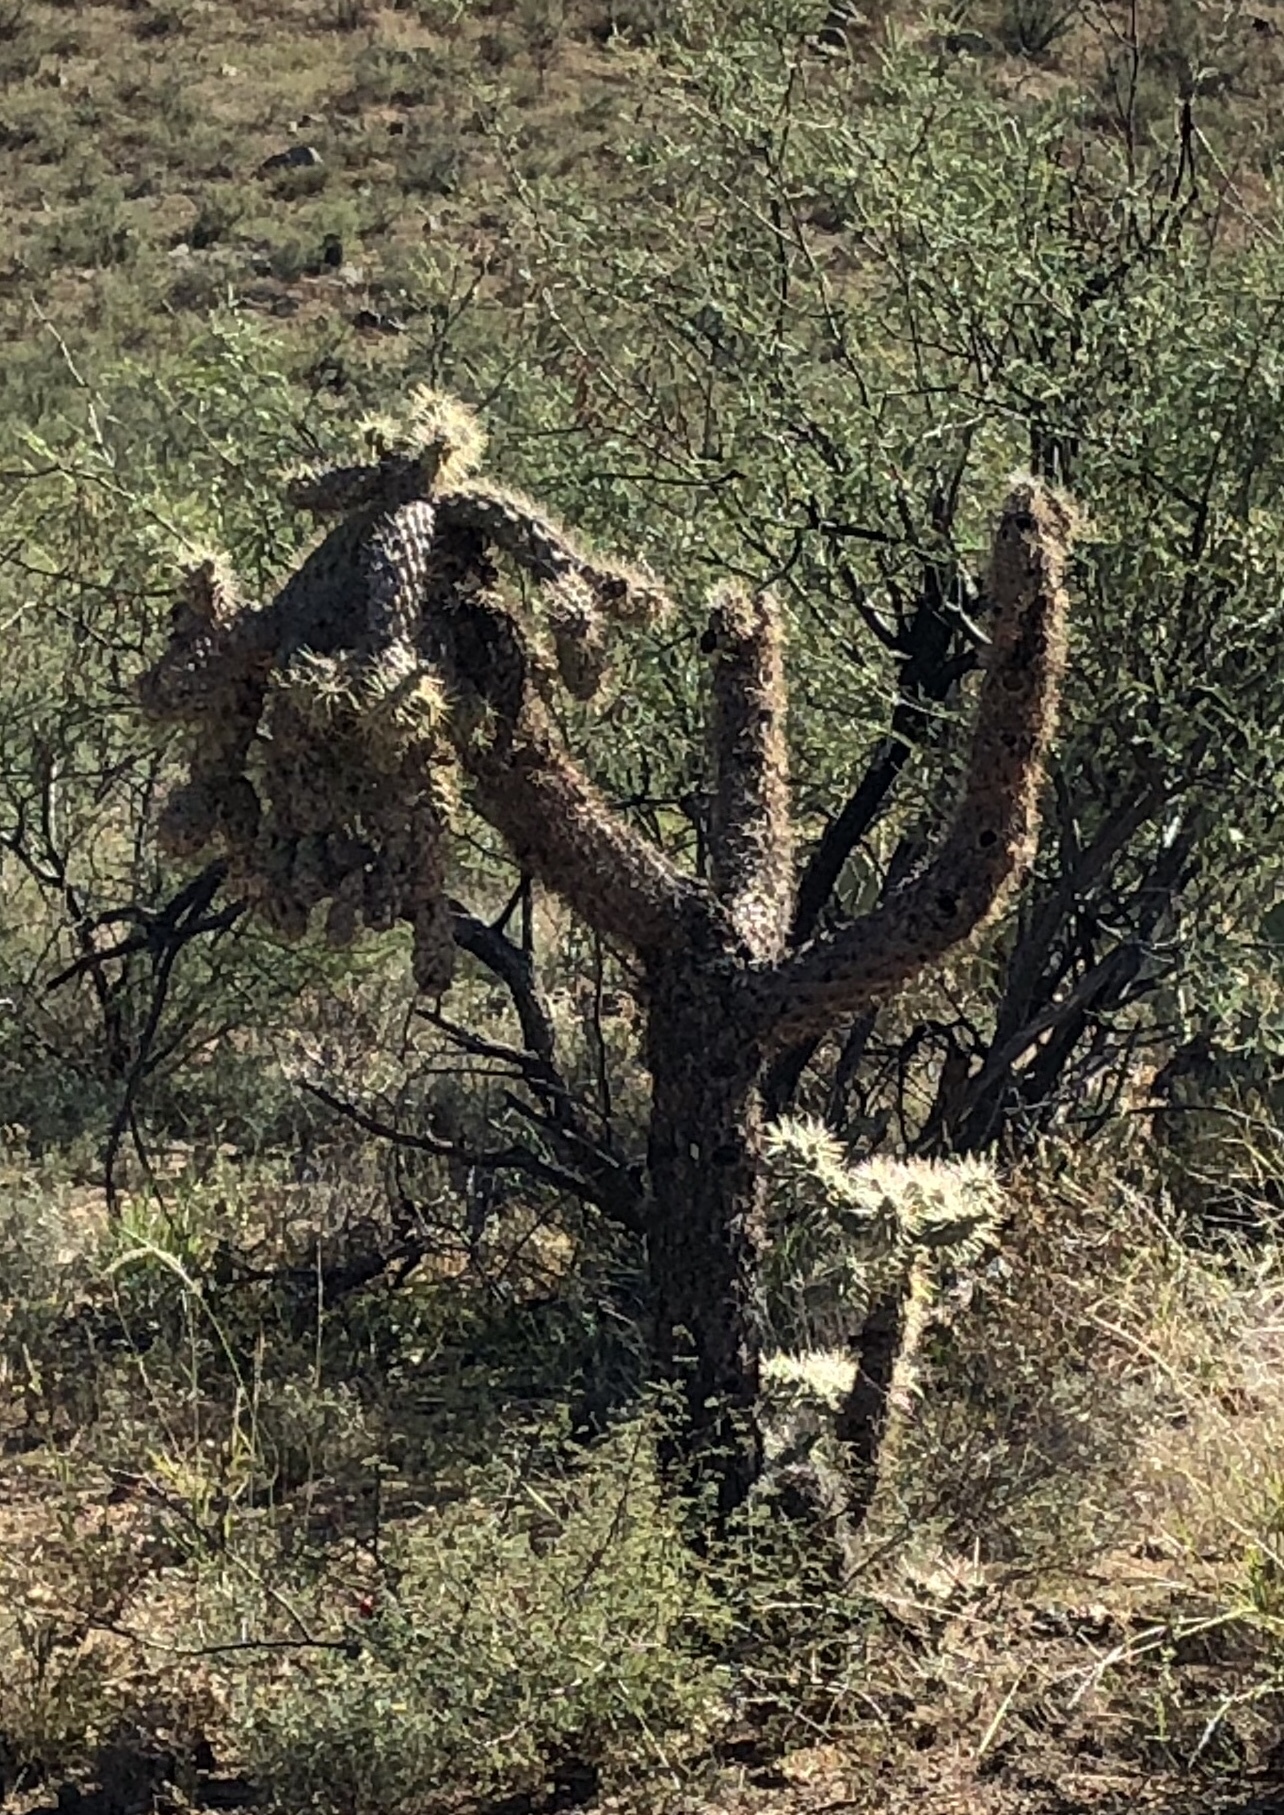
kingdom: Plantae
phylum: Tracheophyta
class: Magnoliopsida
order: Caryophyllales
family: Cactaceae
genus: Cylindropuntia
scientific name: Cylindropuntia fulgida
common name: Jumping cholla
